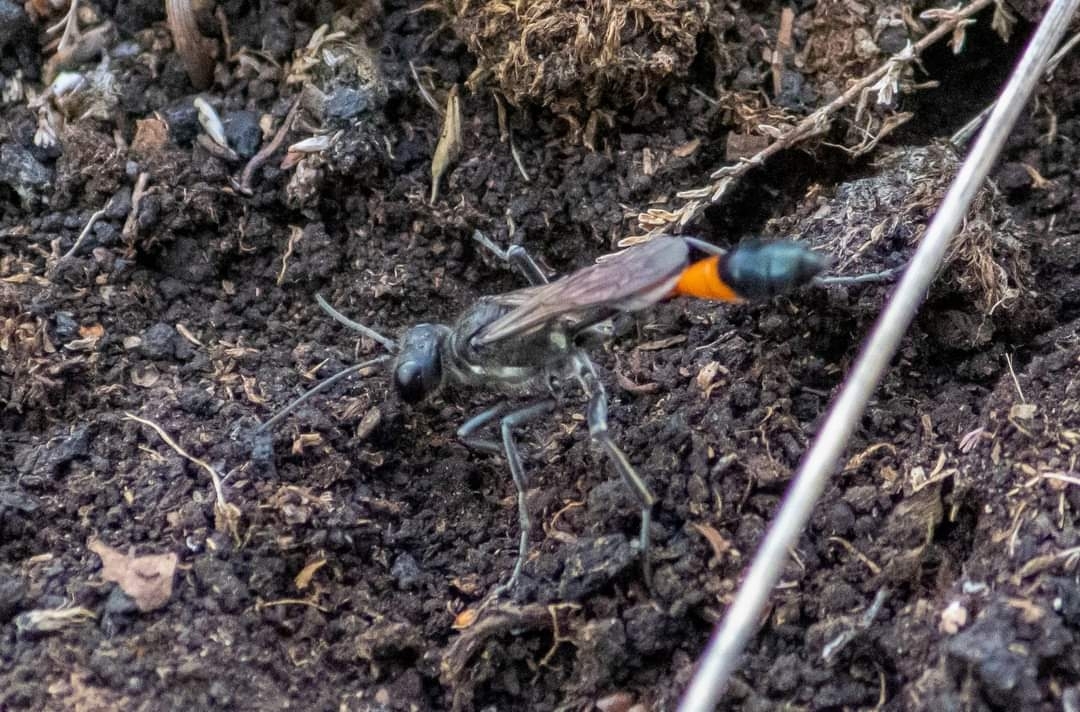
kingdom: Animalia
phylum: Arthropoda
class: Insecta
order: Hymenoptera
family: Sphecidae
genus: Ammophila
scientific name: Ammophila sabulosa
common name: Red banded sand wasp
